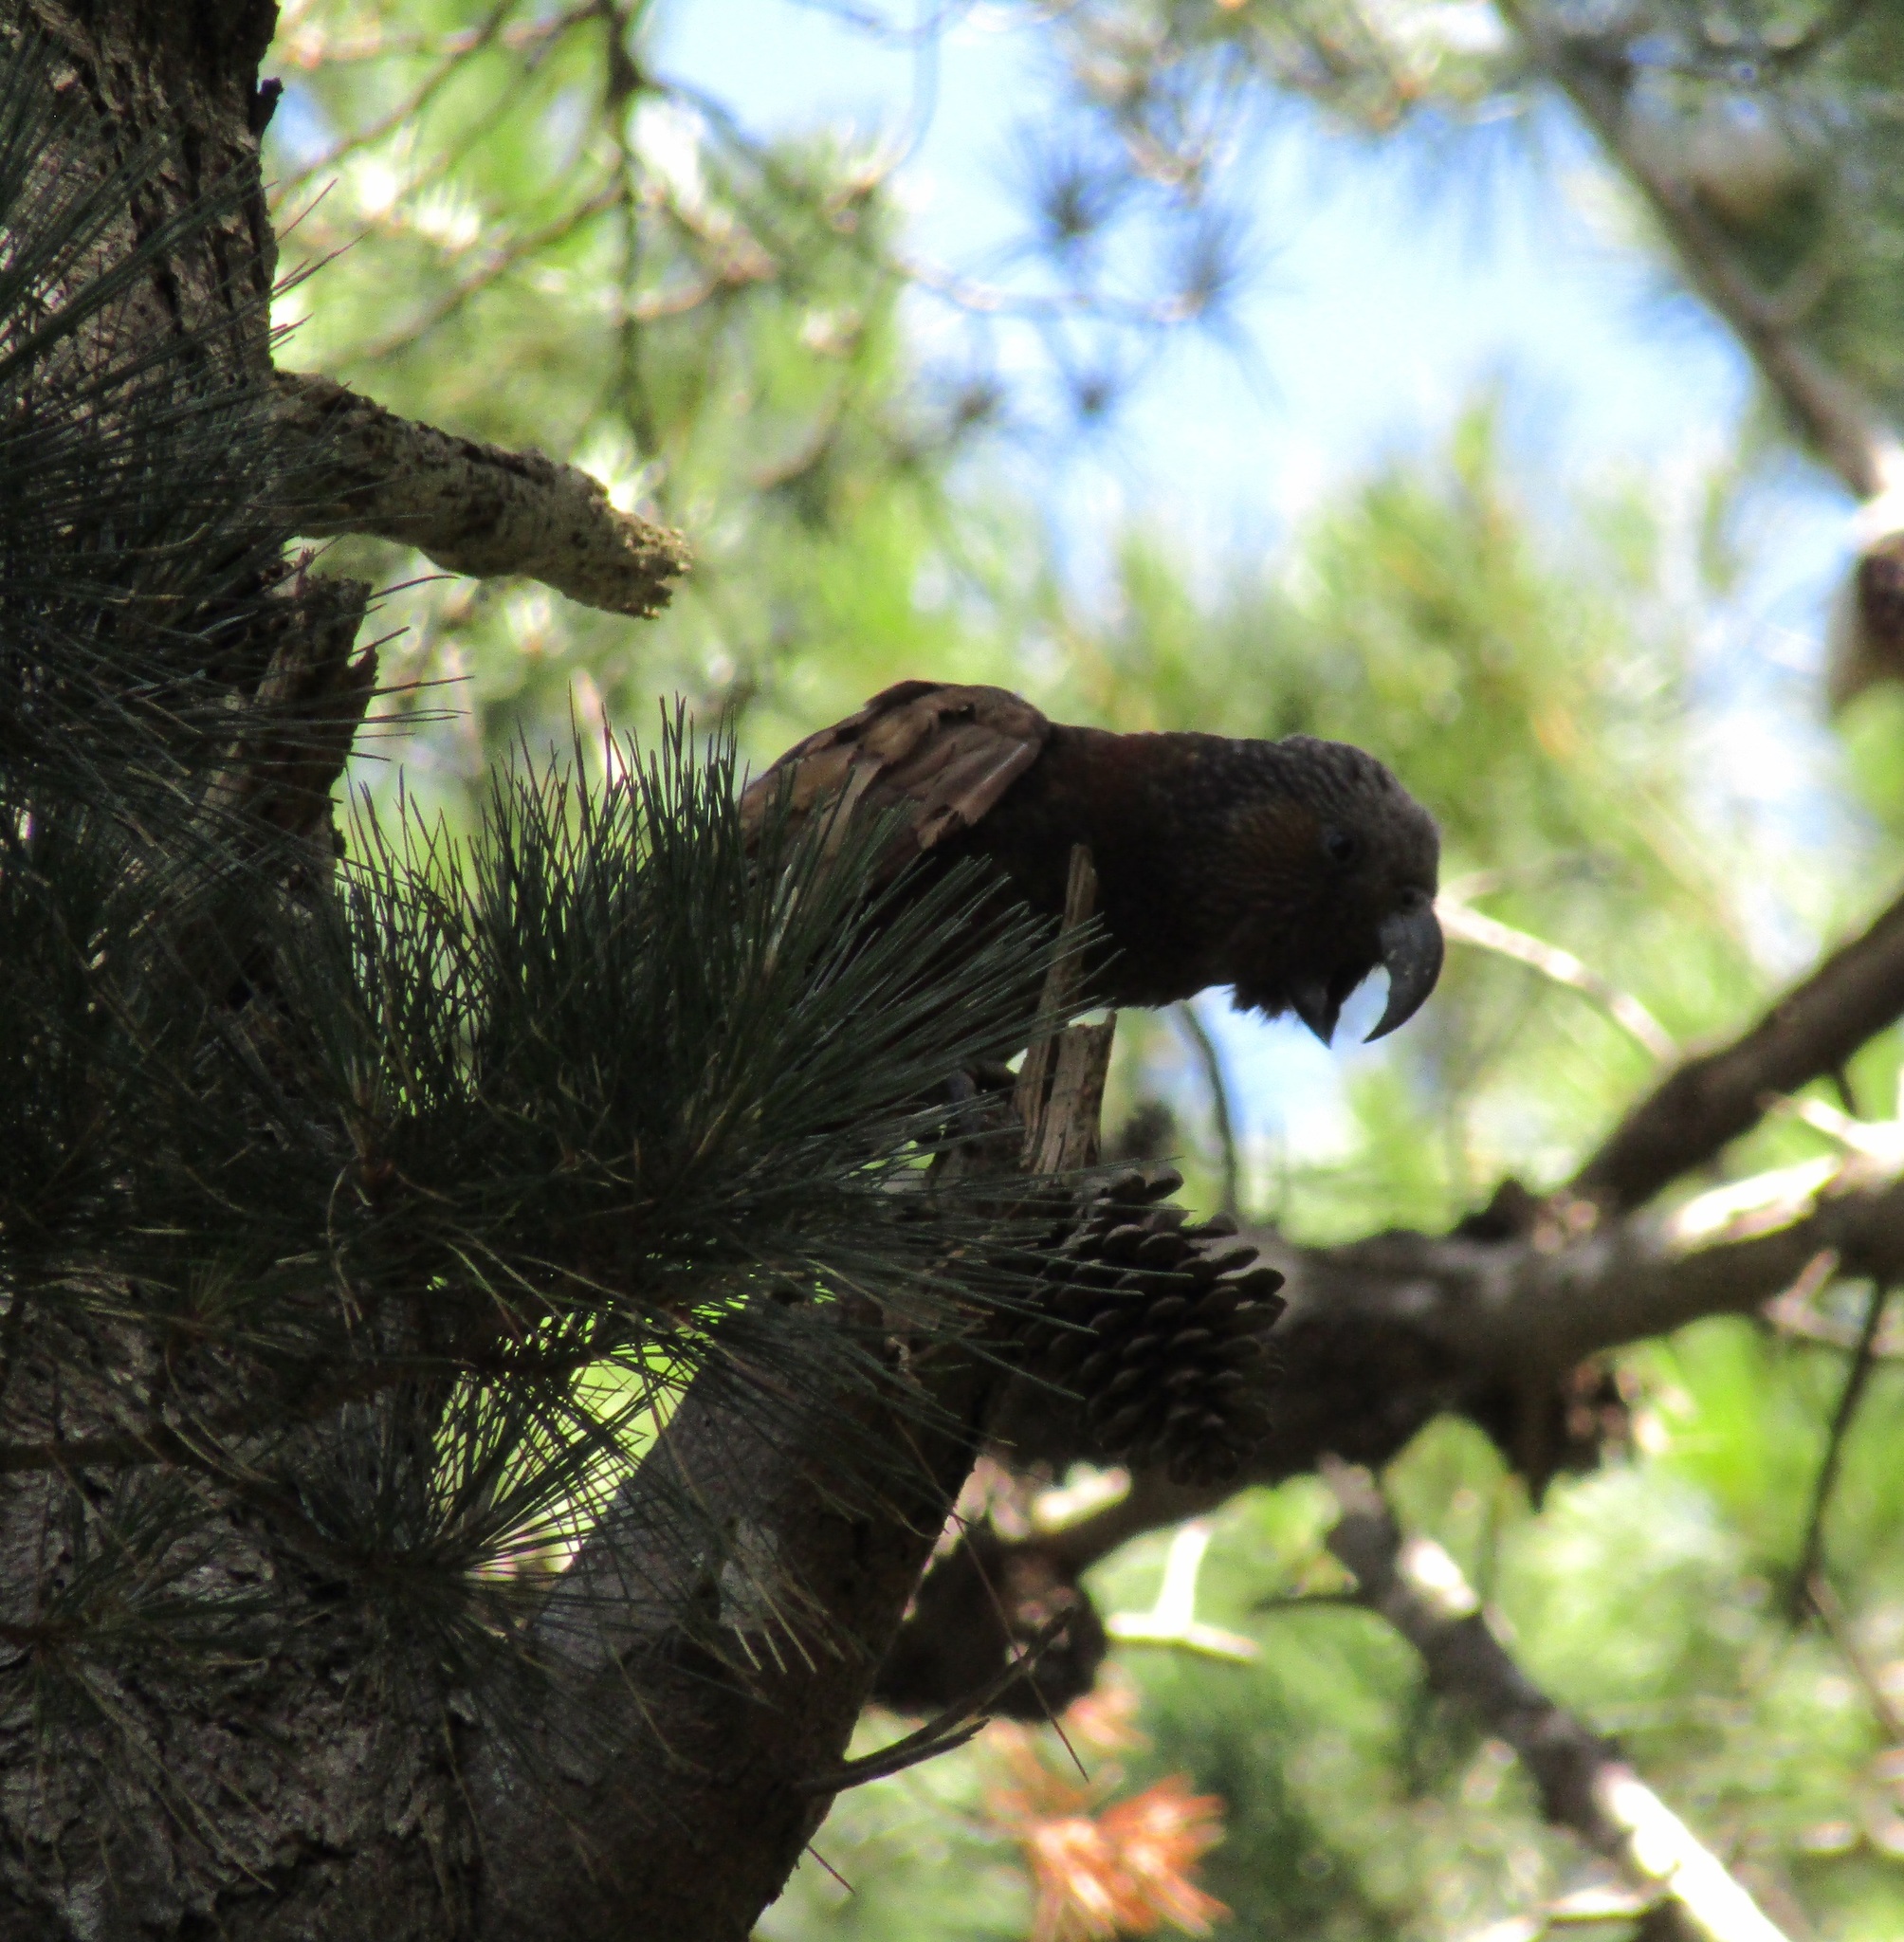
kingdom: Animalia
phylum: Chordata
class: Aves
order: Psittaciformes
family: Psittacidae
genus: Nestor
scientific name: Nestor meridionalis
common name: New zealand kaka
